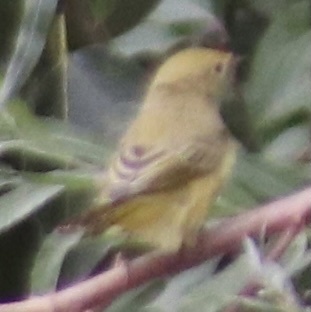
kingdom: Animalia
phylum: Chordata
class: Aves
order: Passeriformes
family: Parulidae
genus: Setophaga
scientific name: Setophaga petechia
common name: Yellow warbler
